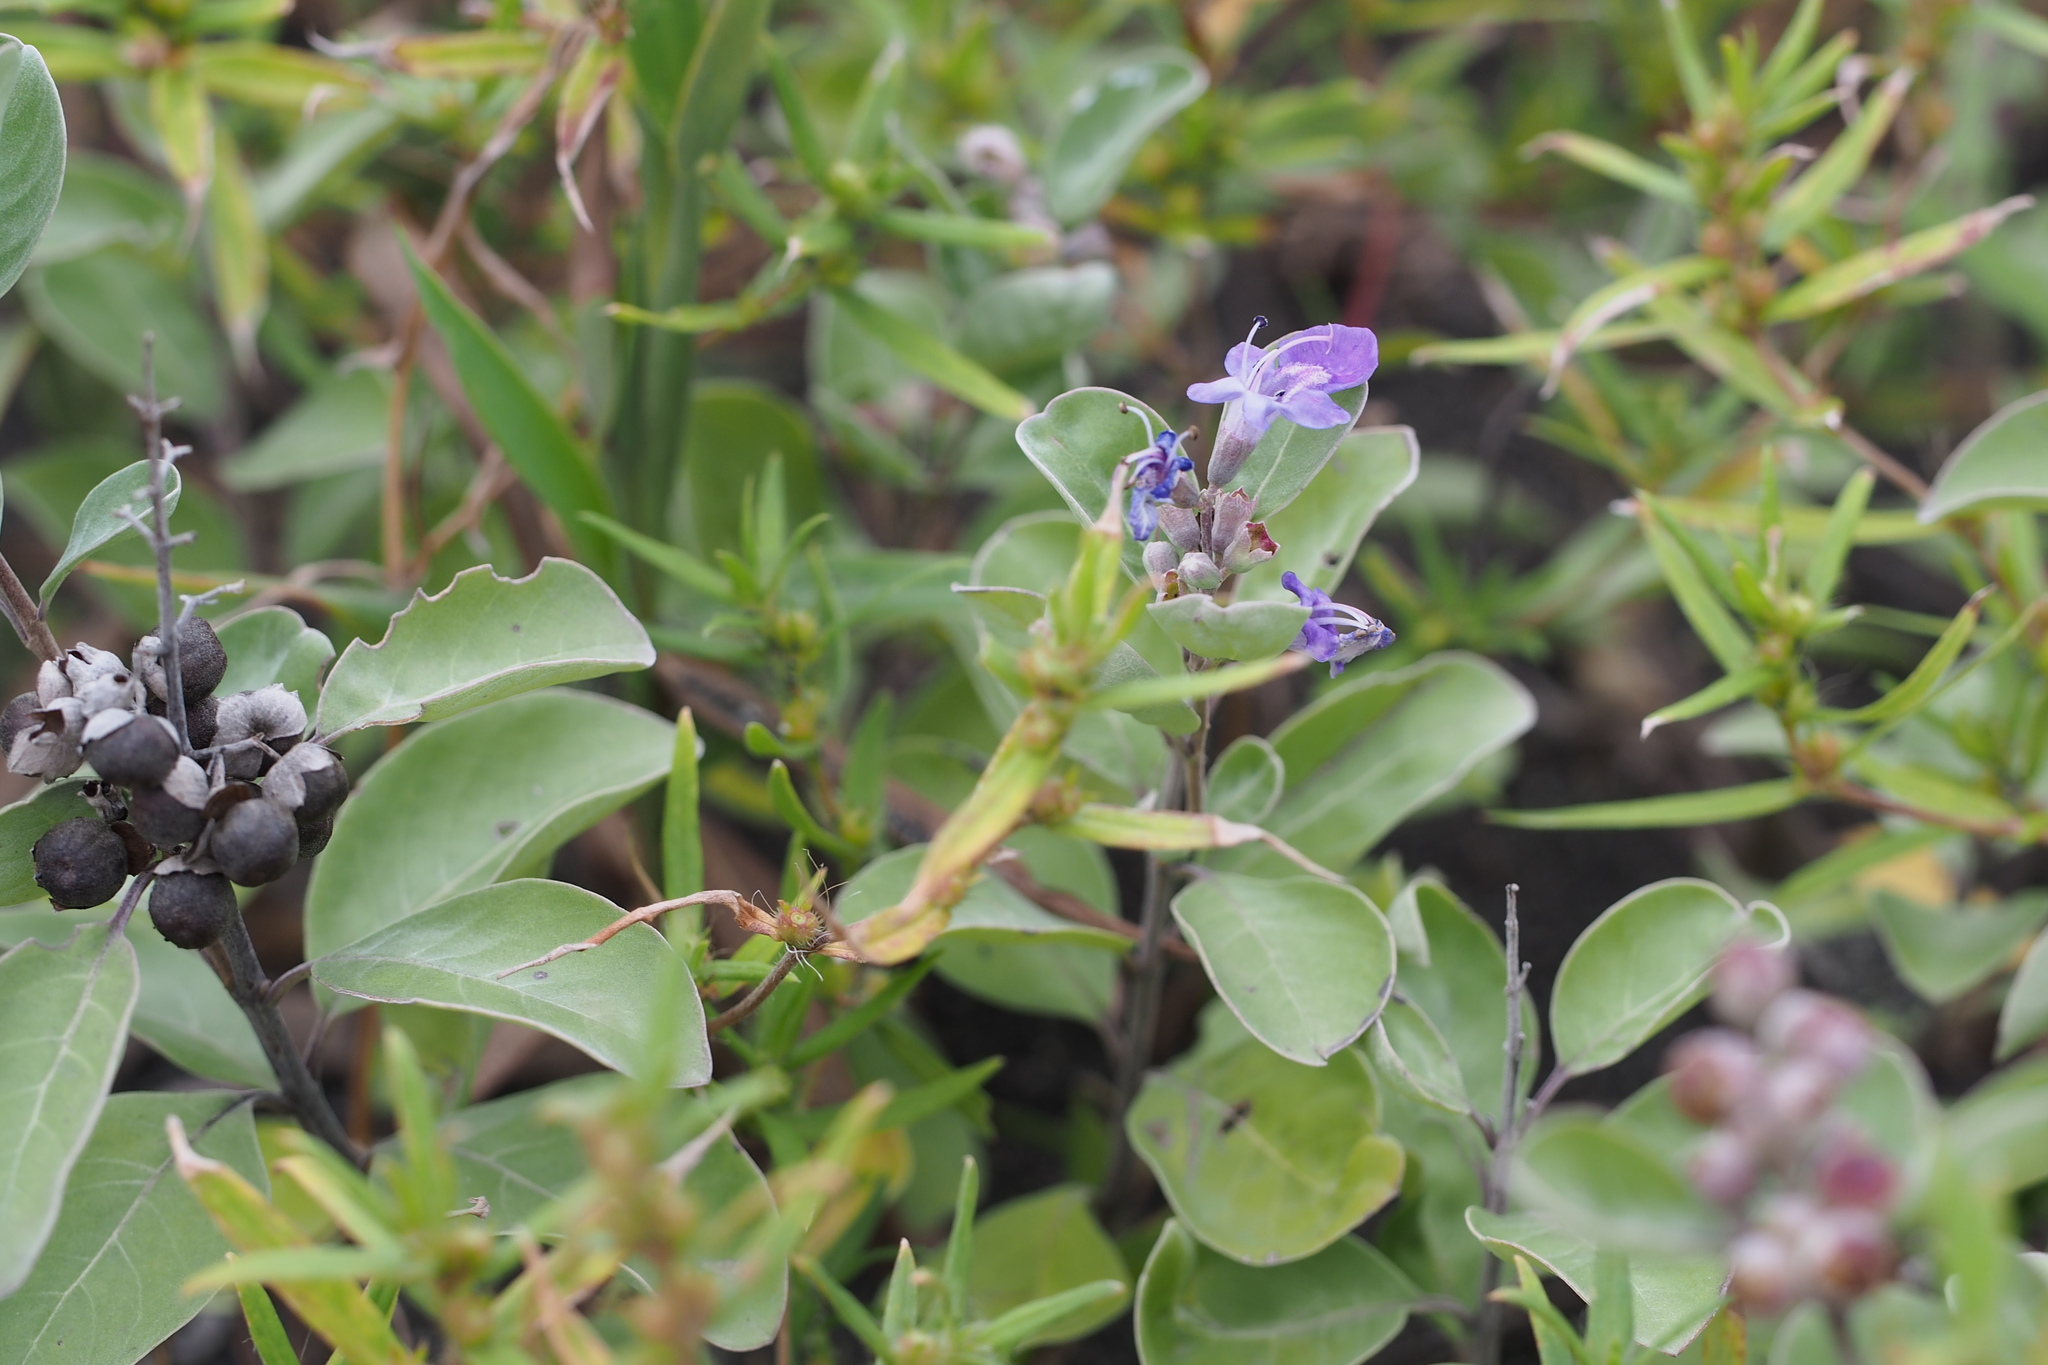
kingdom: Plantae
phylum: Tracheophyta
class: Magnoliopsida
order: Lamiales
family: Lamiaceae
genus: Vitex
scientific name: Vitex rotundifolia
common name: Beach vitex
